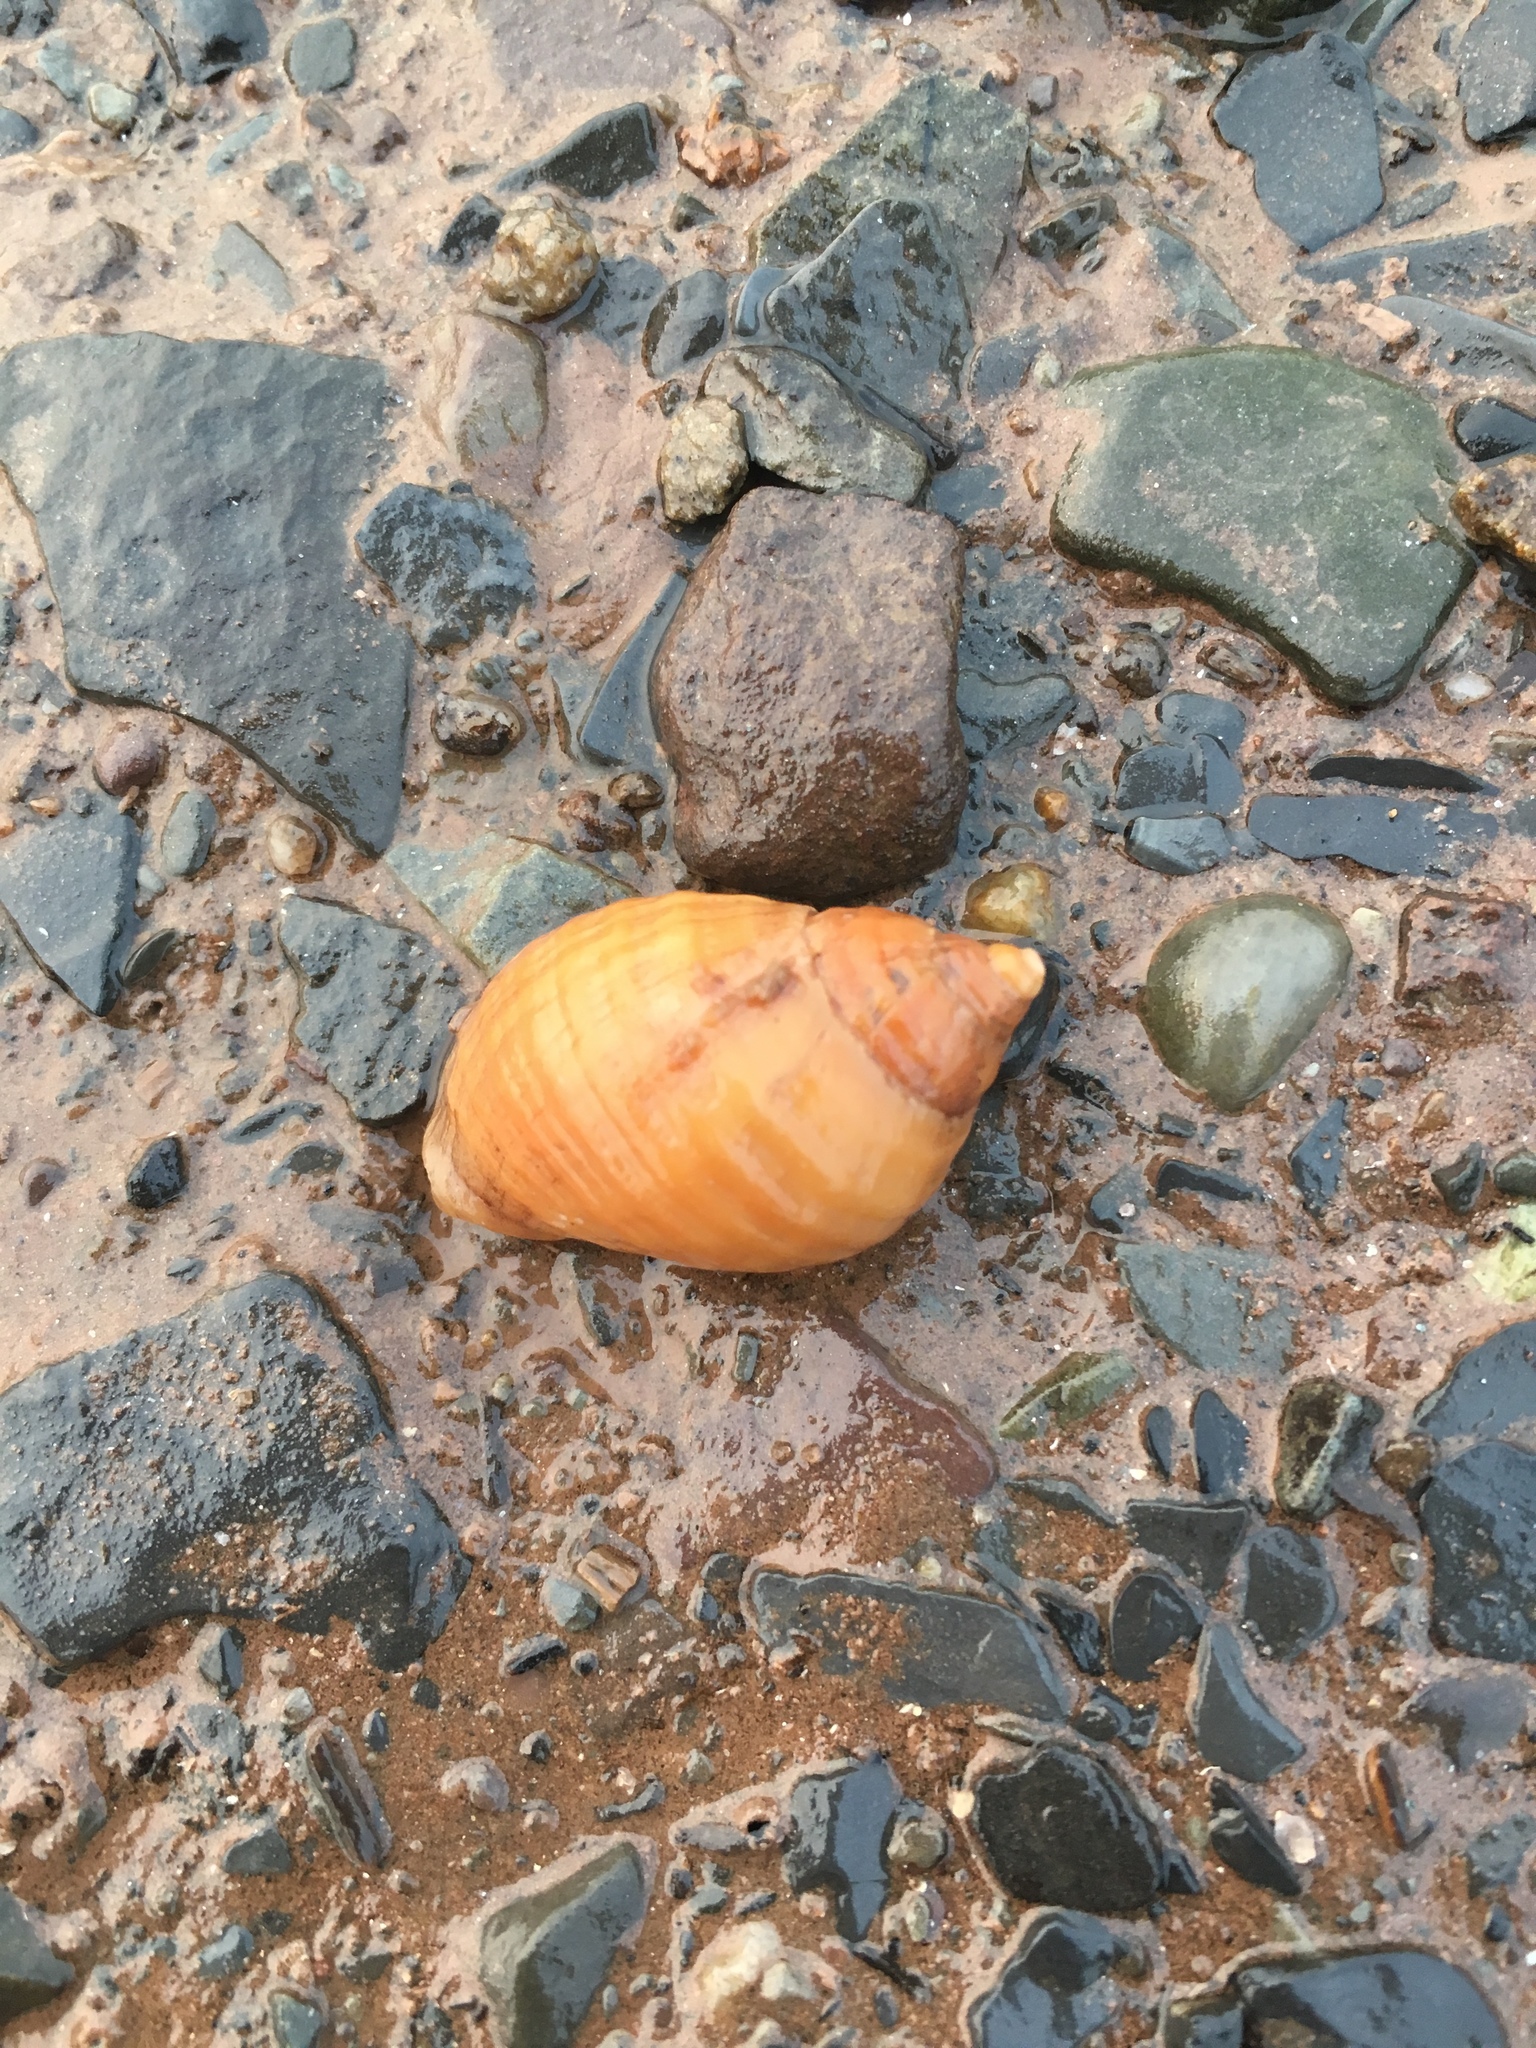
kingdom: Animalia
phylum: Mollusca
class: Gastropoda
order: Neogastropoda
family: Muricidae
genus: Nucella
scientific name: Nucella lapillus
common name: Dog whelk
